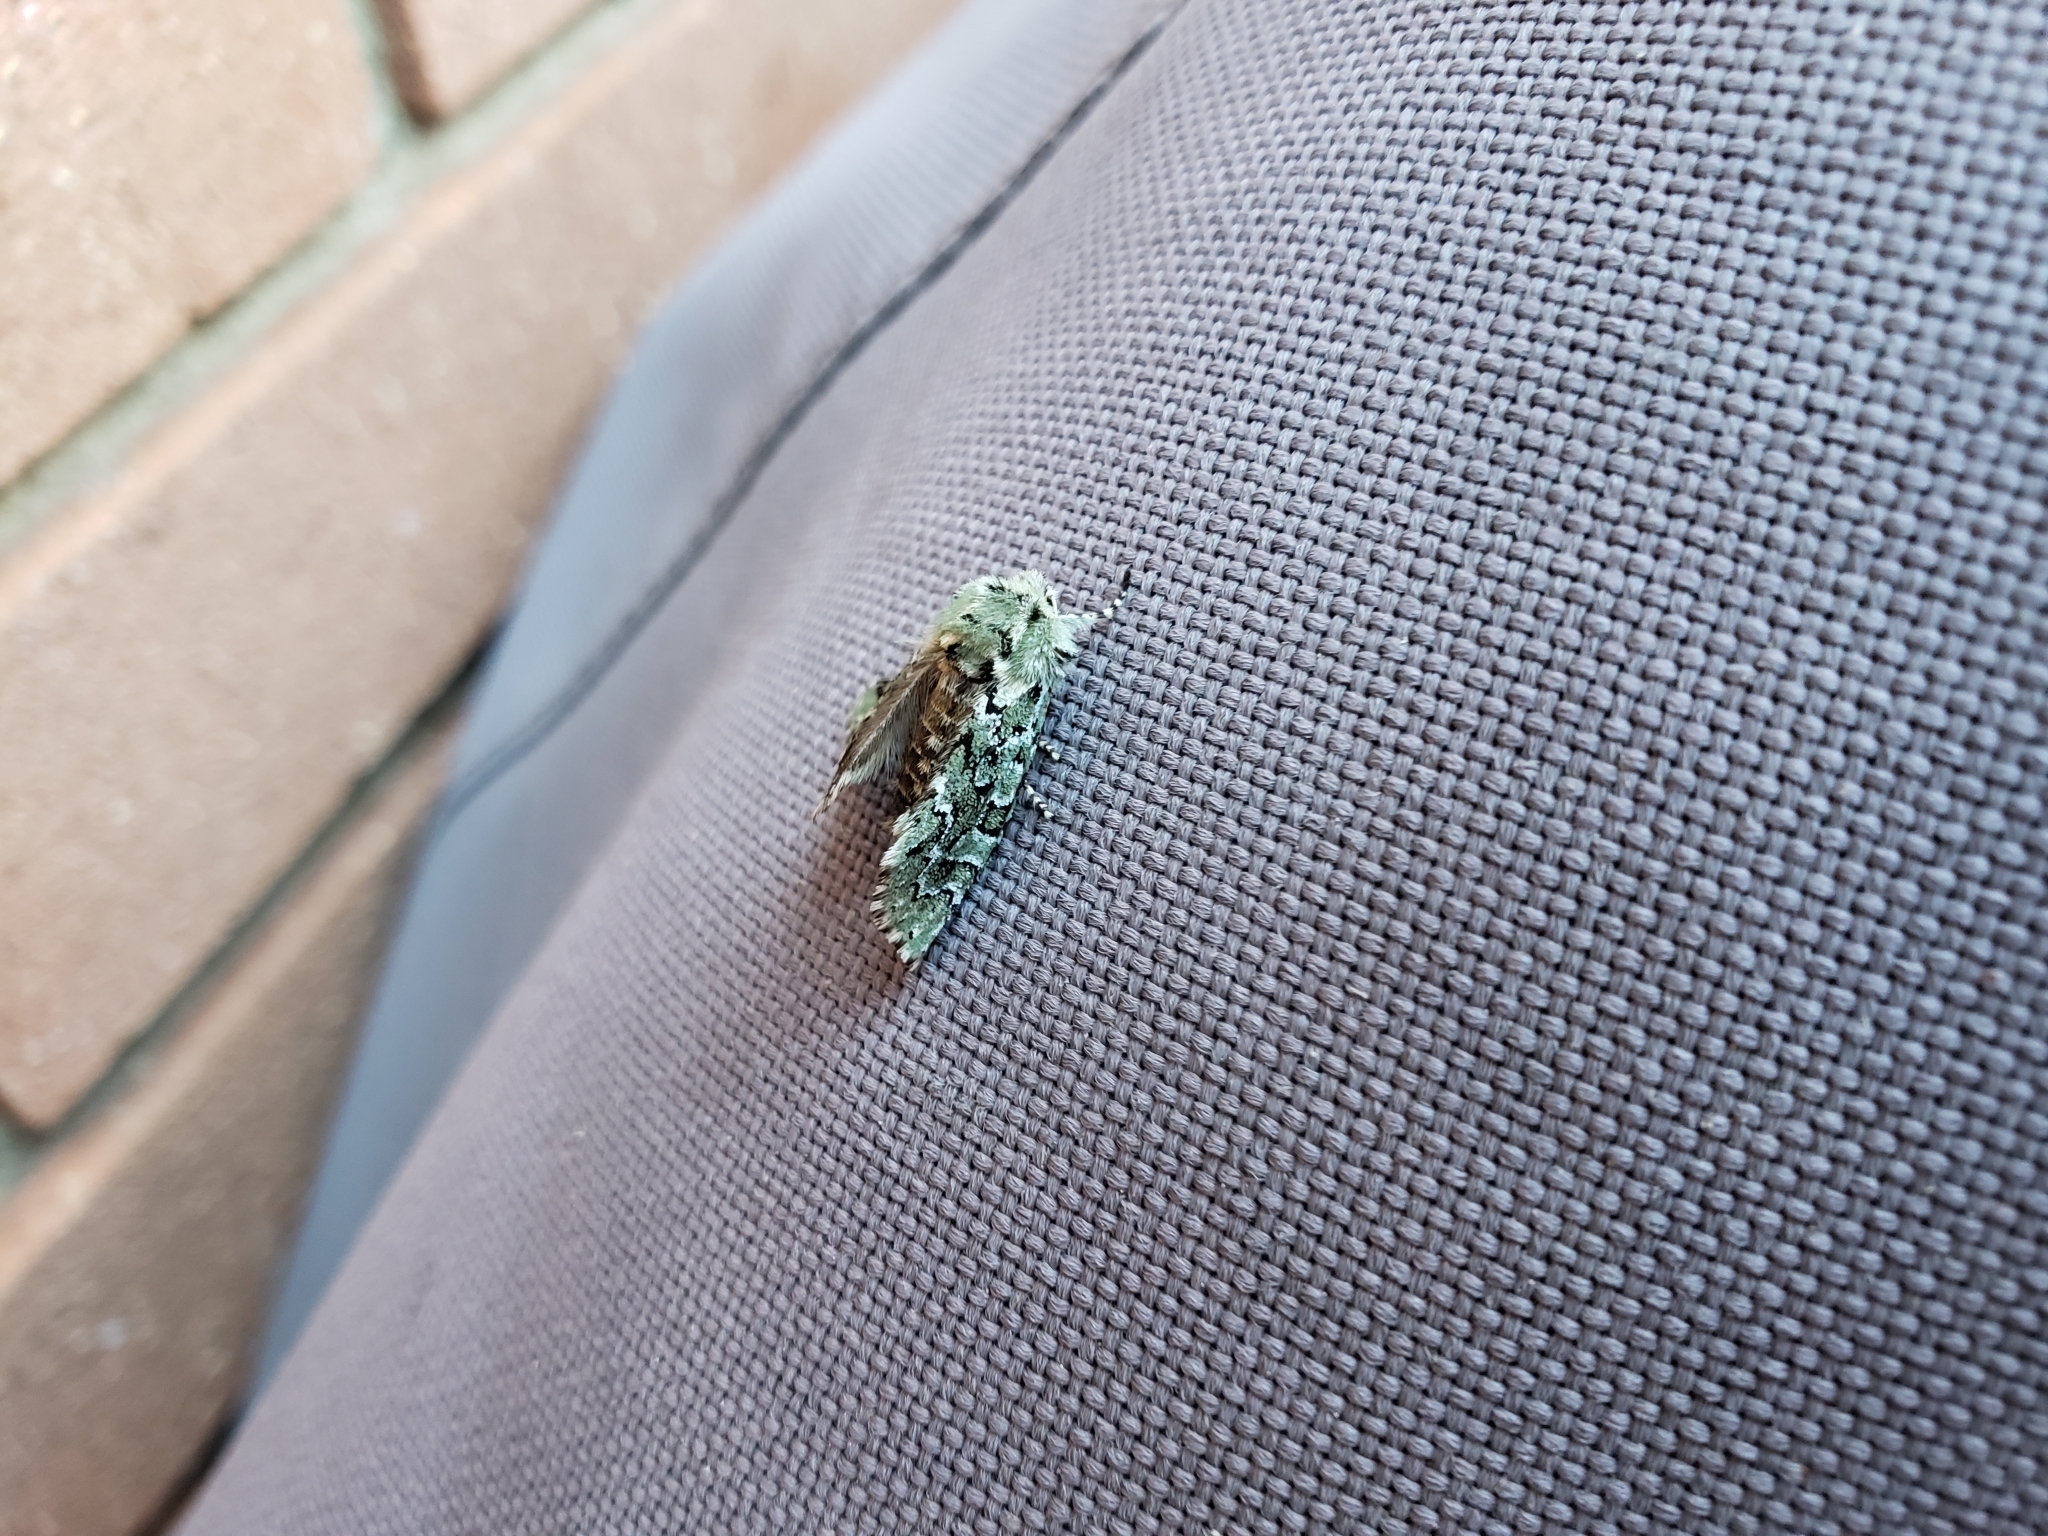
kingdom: Animalia
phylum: Arthropoda
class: Insecta
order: Lepidoptera
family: Noctuidae
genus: Feralia
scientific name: Feralia major
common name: Major sallow
